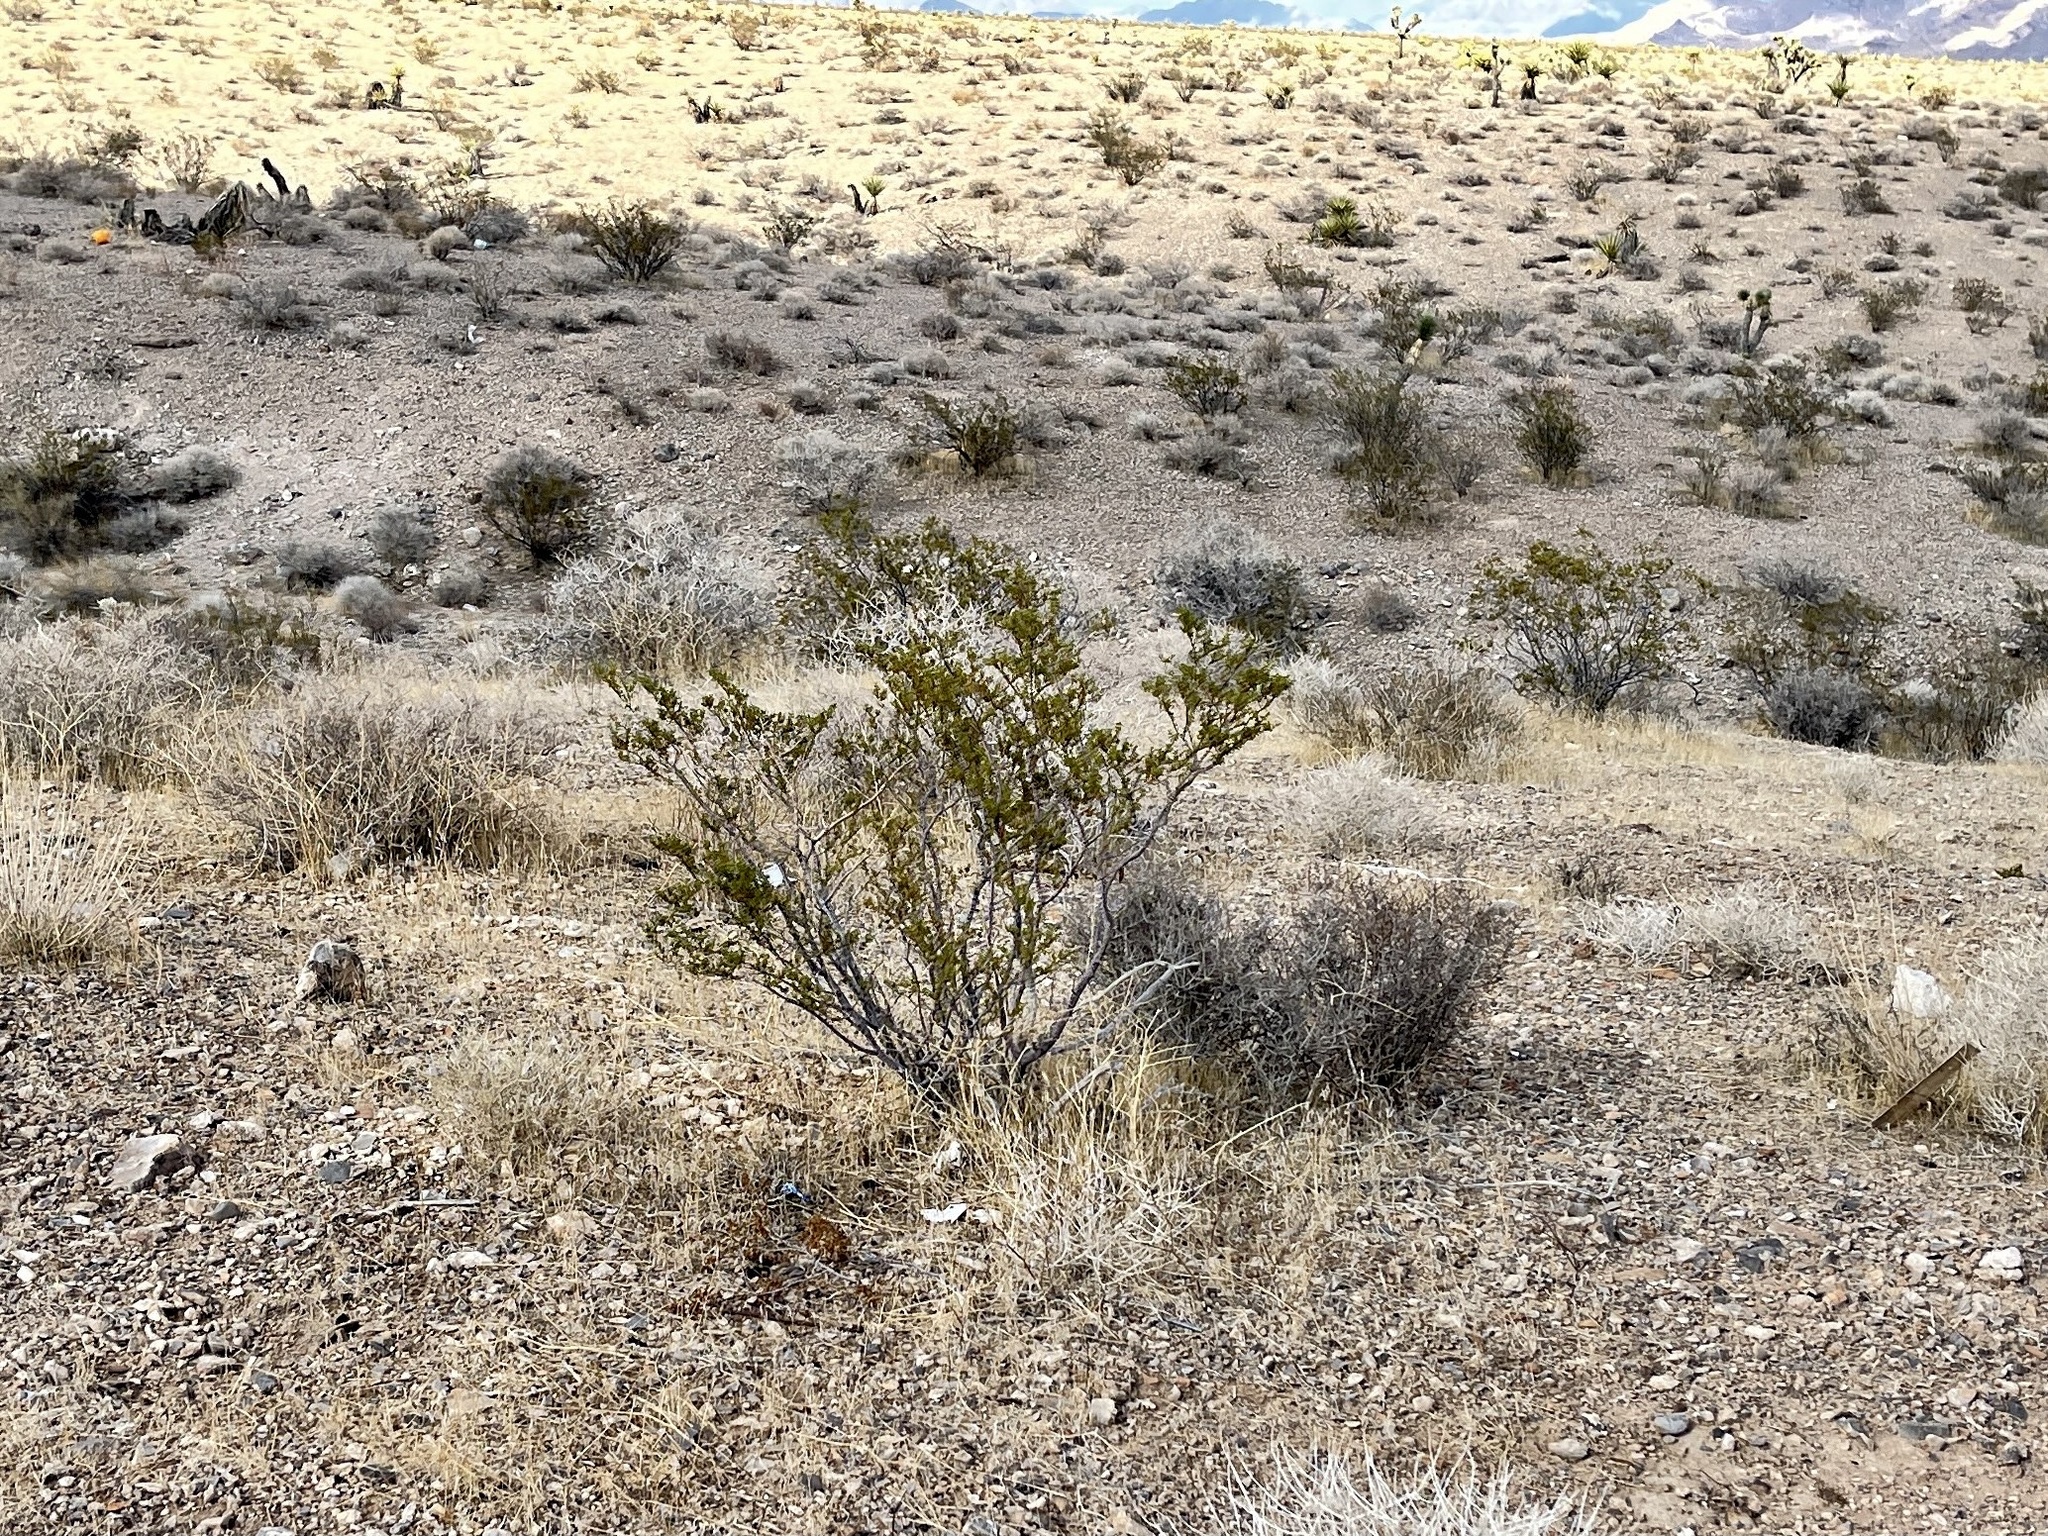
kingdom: Plantae
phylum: Tracheophyta
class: Magnoliopsida
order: Zygophyllales
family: Zygophyllaceae
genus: Larrea
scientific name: Larrea tridentata
